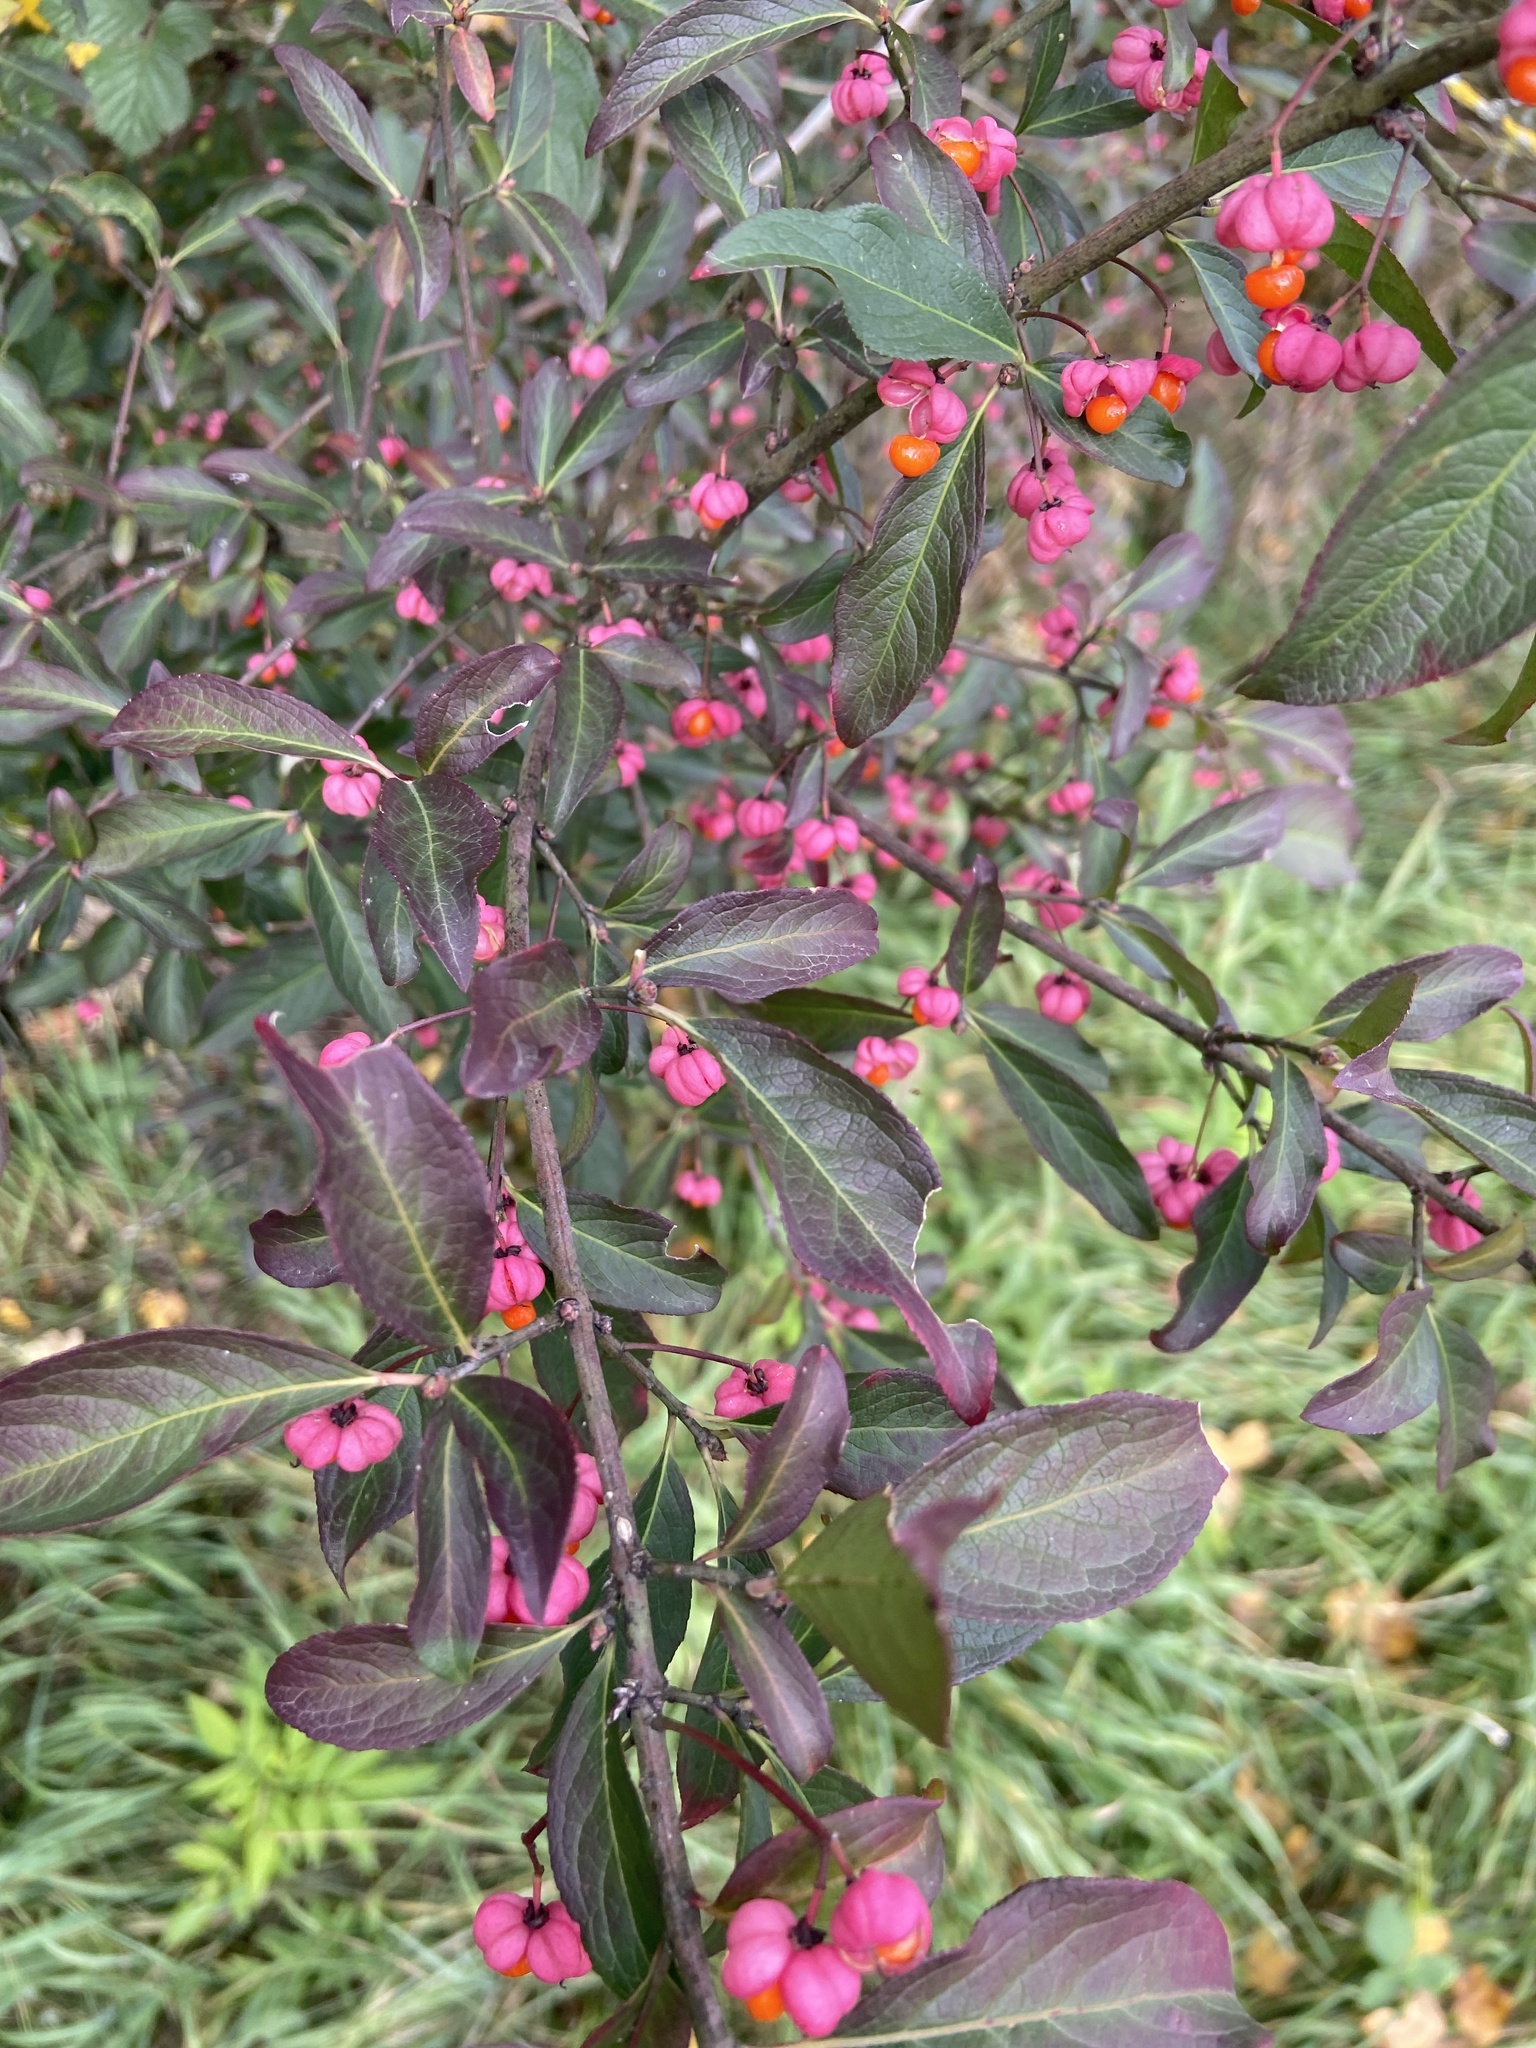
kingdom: Plantae
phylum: Tracheophyta
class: Magnoliopsida
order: Celastrales
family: Celastraceae
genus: Euonymus
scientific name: Euonymus europaeus
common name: Spindle
